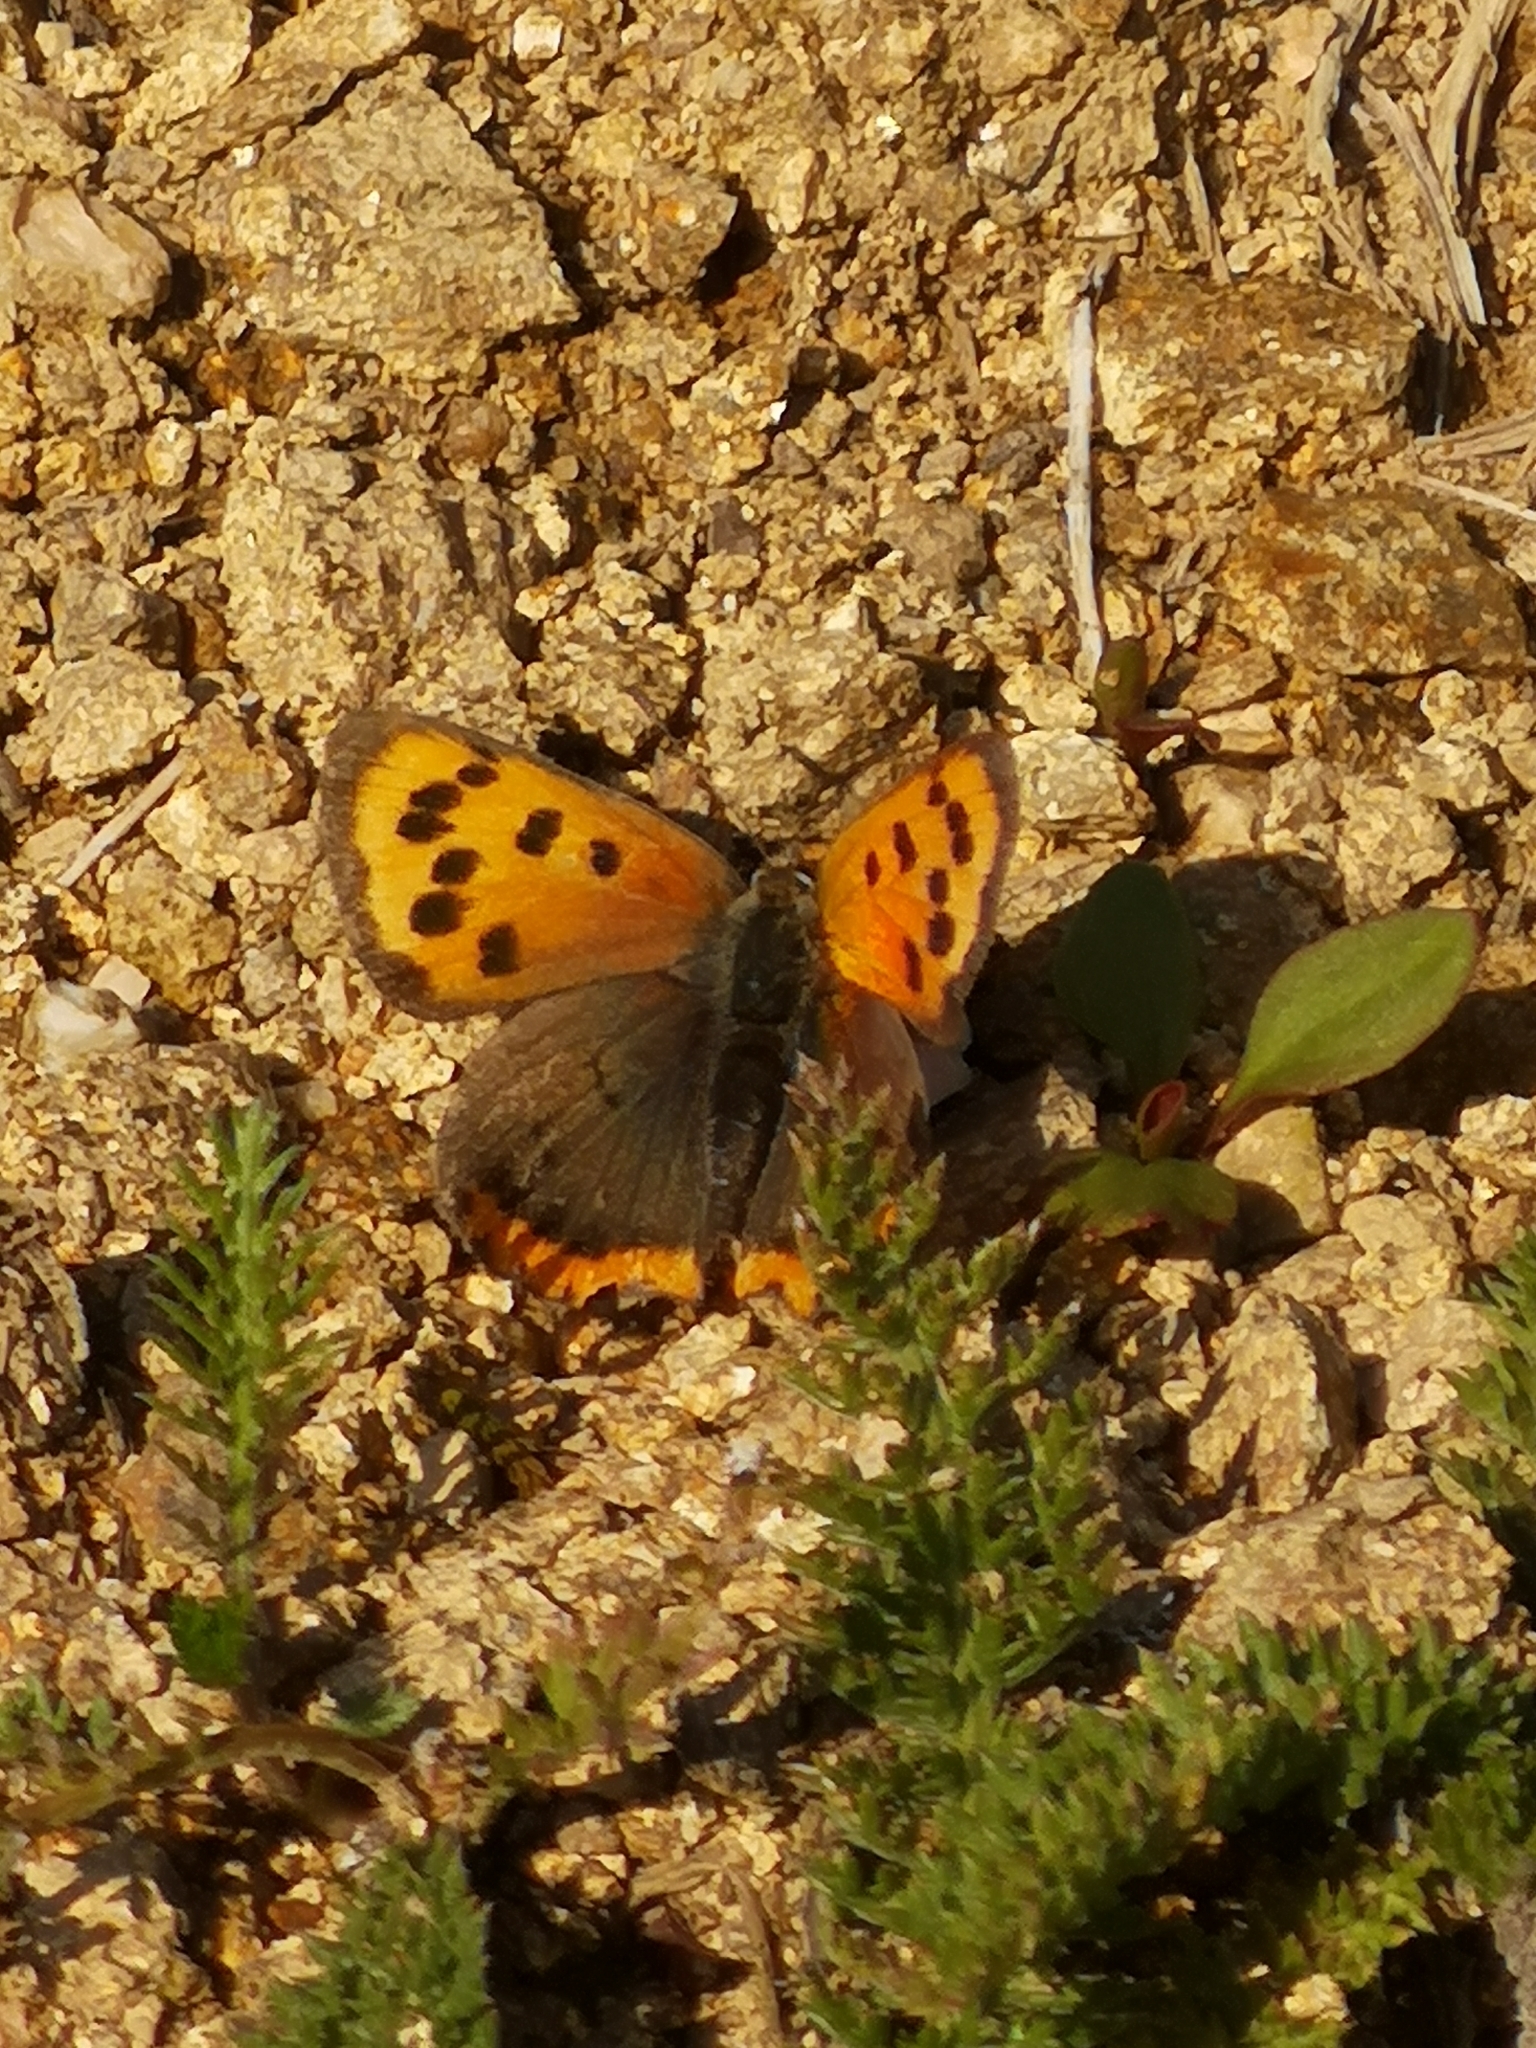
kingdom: Animalia
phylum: Arthropoda
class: Insecta
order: Lepidoptera
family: Lycaenidae
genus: Lycaena
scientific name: Lycaena phlaeas
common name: Small copper
